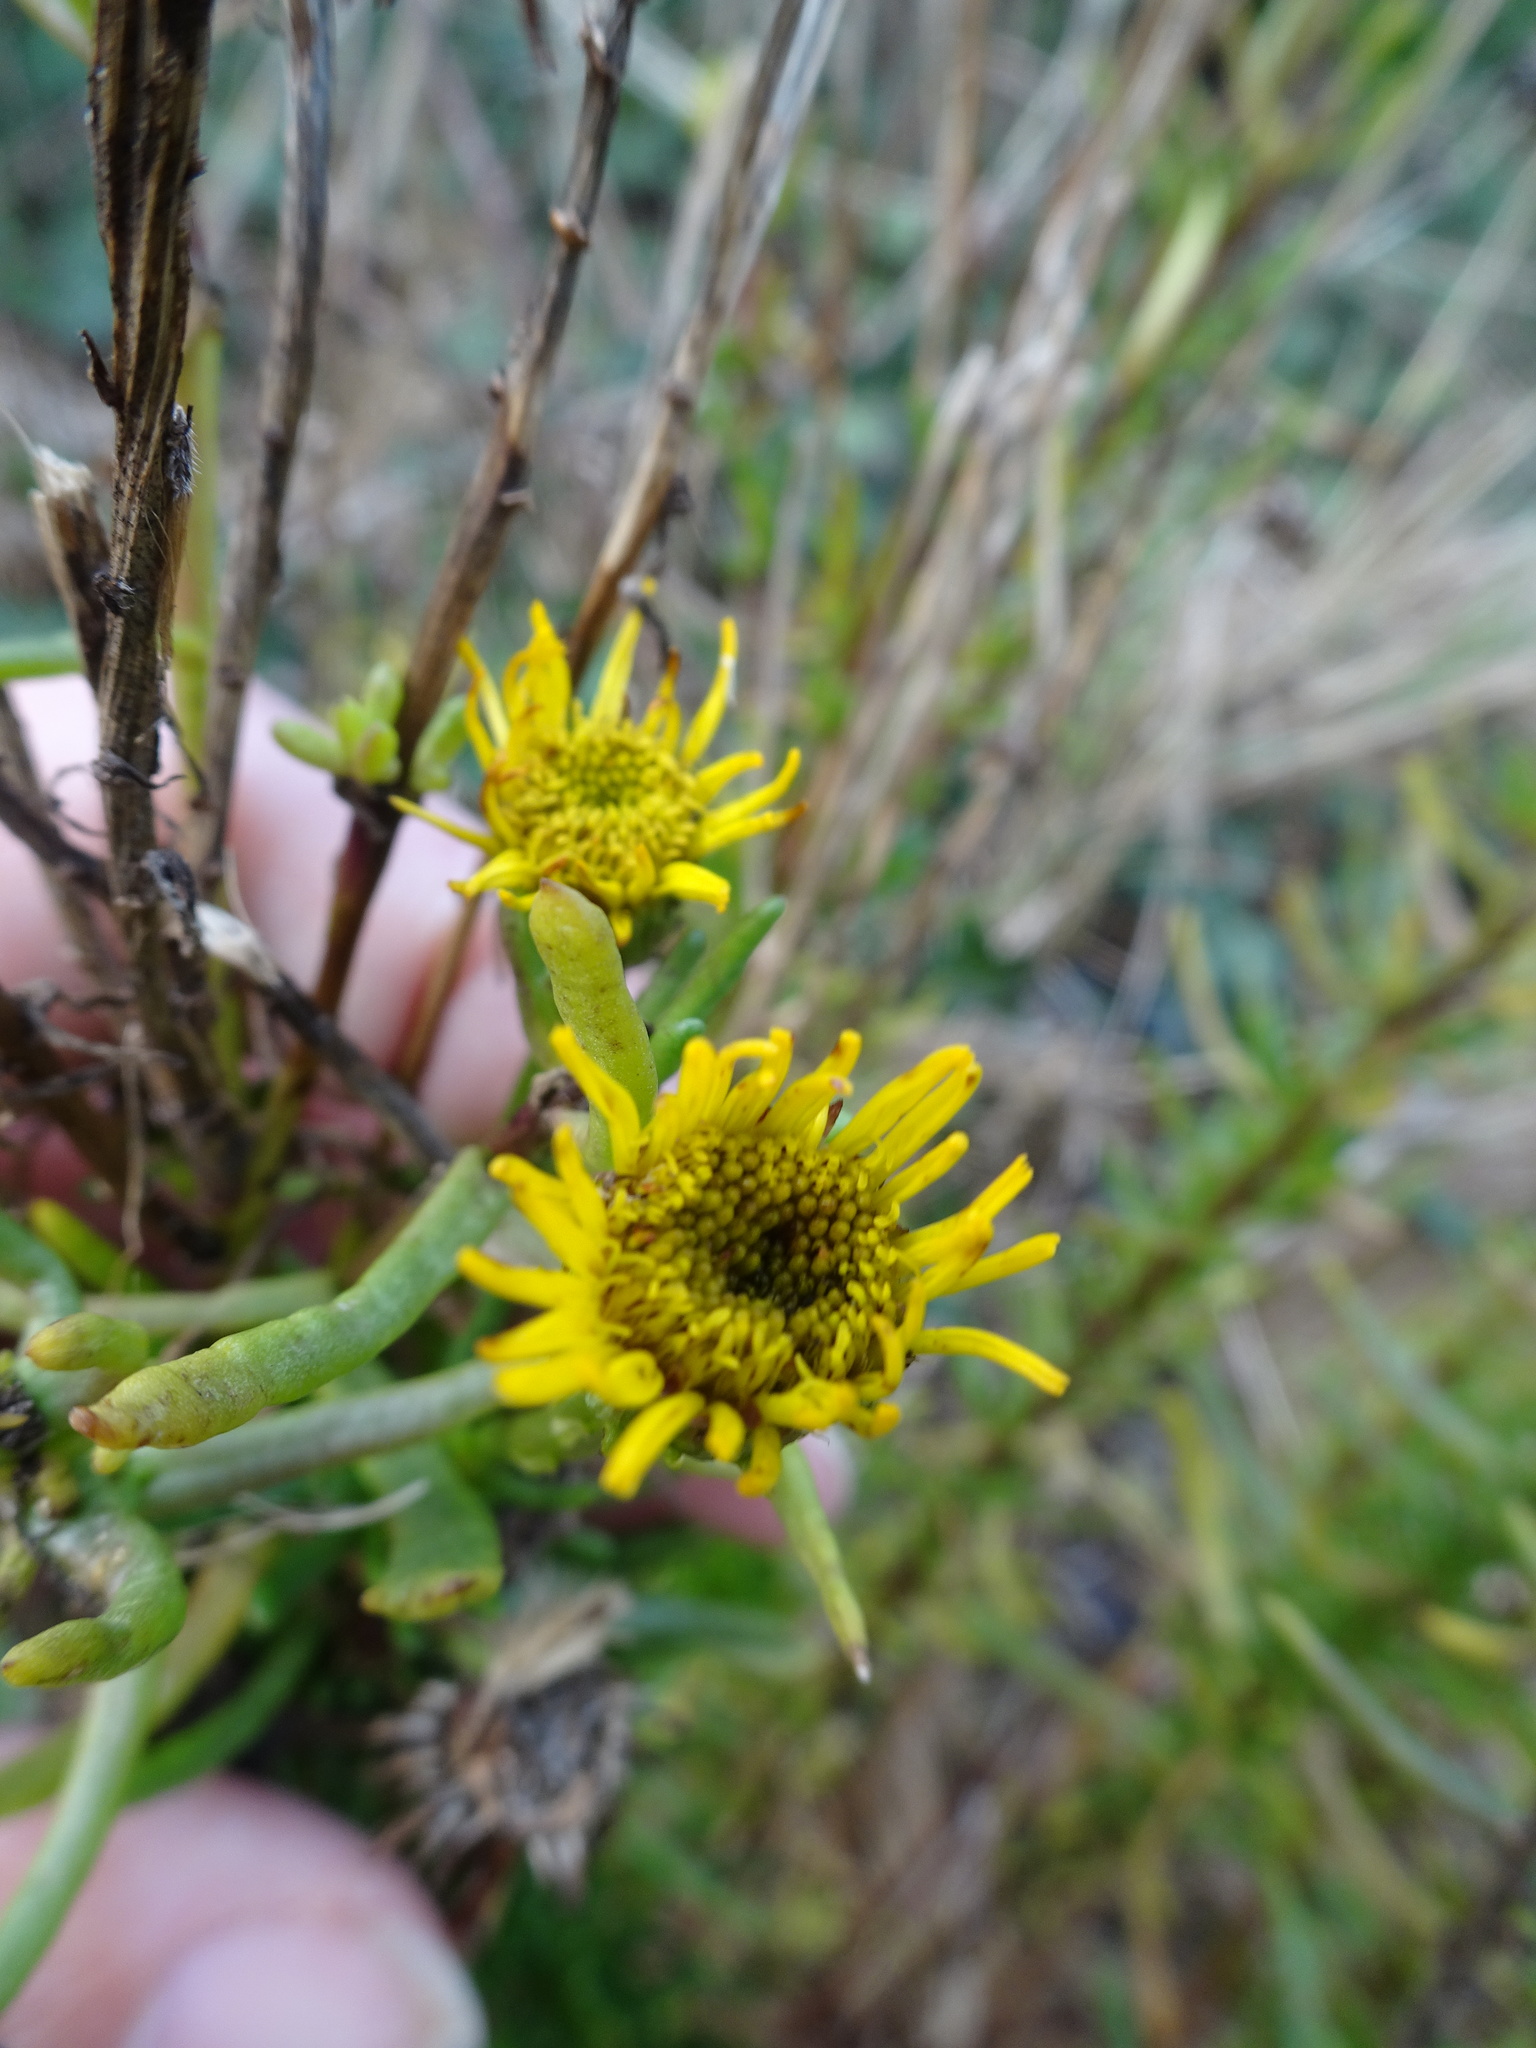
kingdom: Plantae
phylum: Tracheophyta
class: Magnoliopsida
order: Asterales
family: Asteraceae
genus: Limbarda
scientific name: Limbarda crithmoides
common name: Golden samphire
